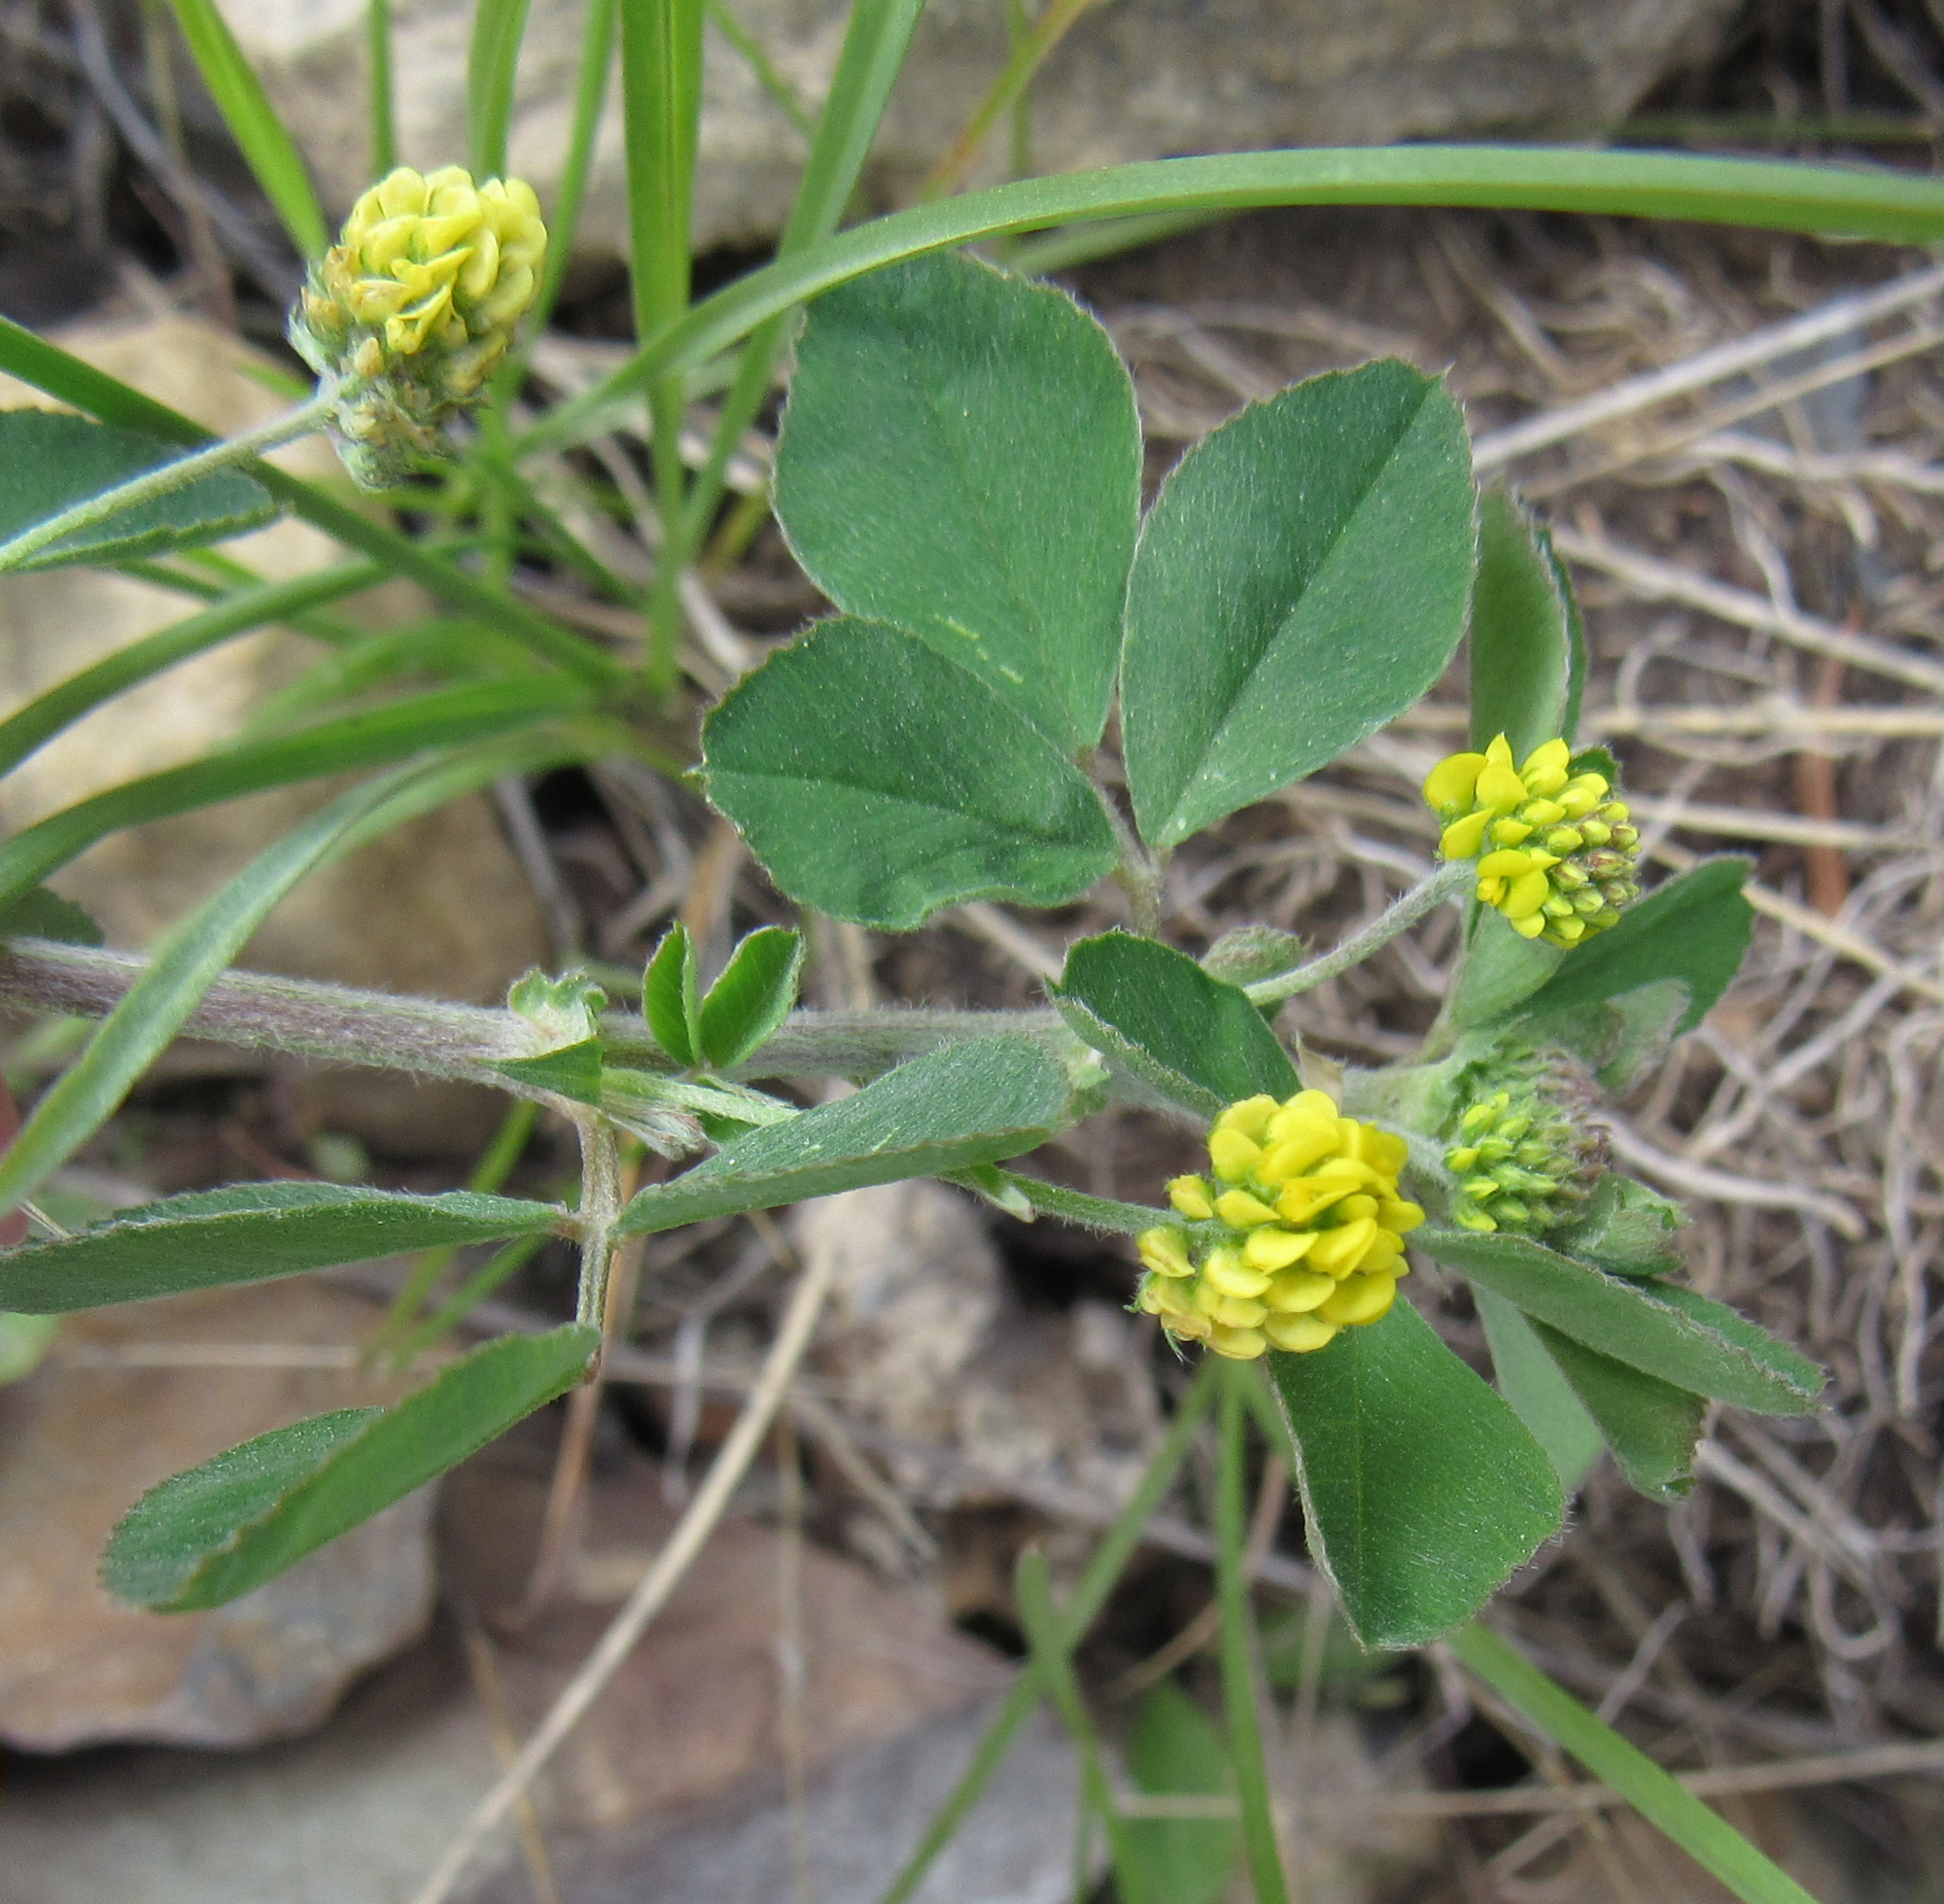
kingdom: Plantae
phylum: Tracheophyta
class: Magnoliopsida
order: Fabales
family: Fabaceae
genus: Medicago
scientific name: Medicago lupulina
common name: Black medick
